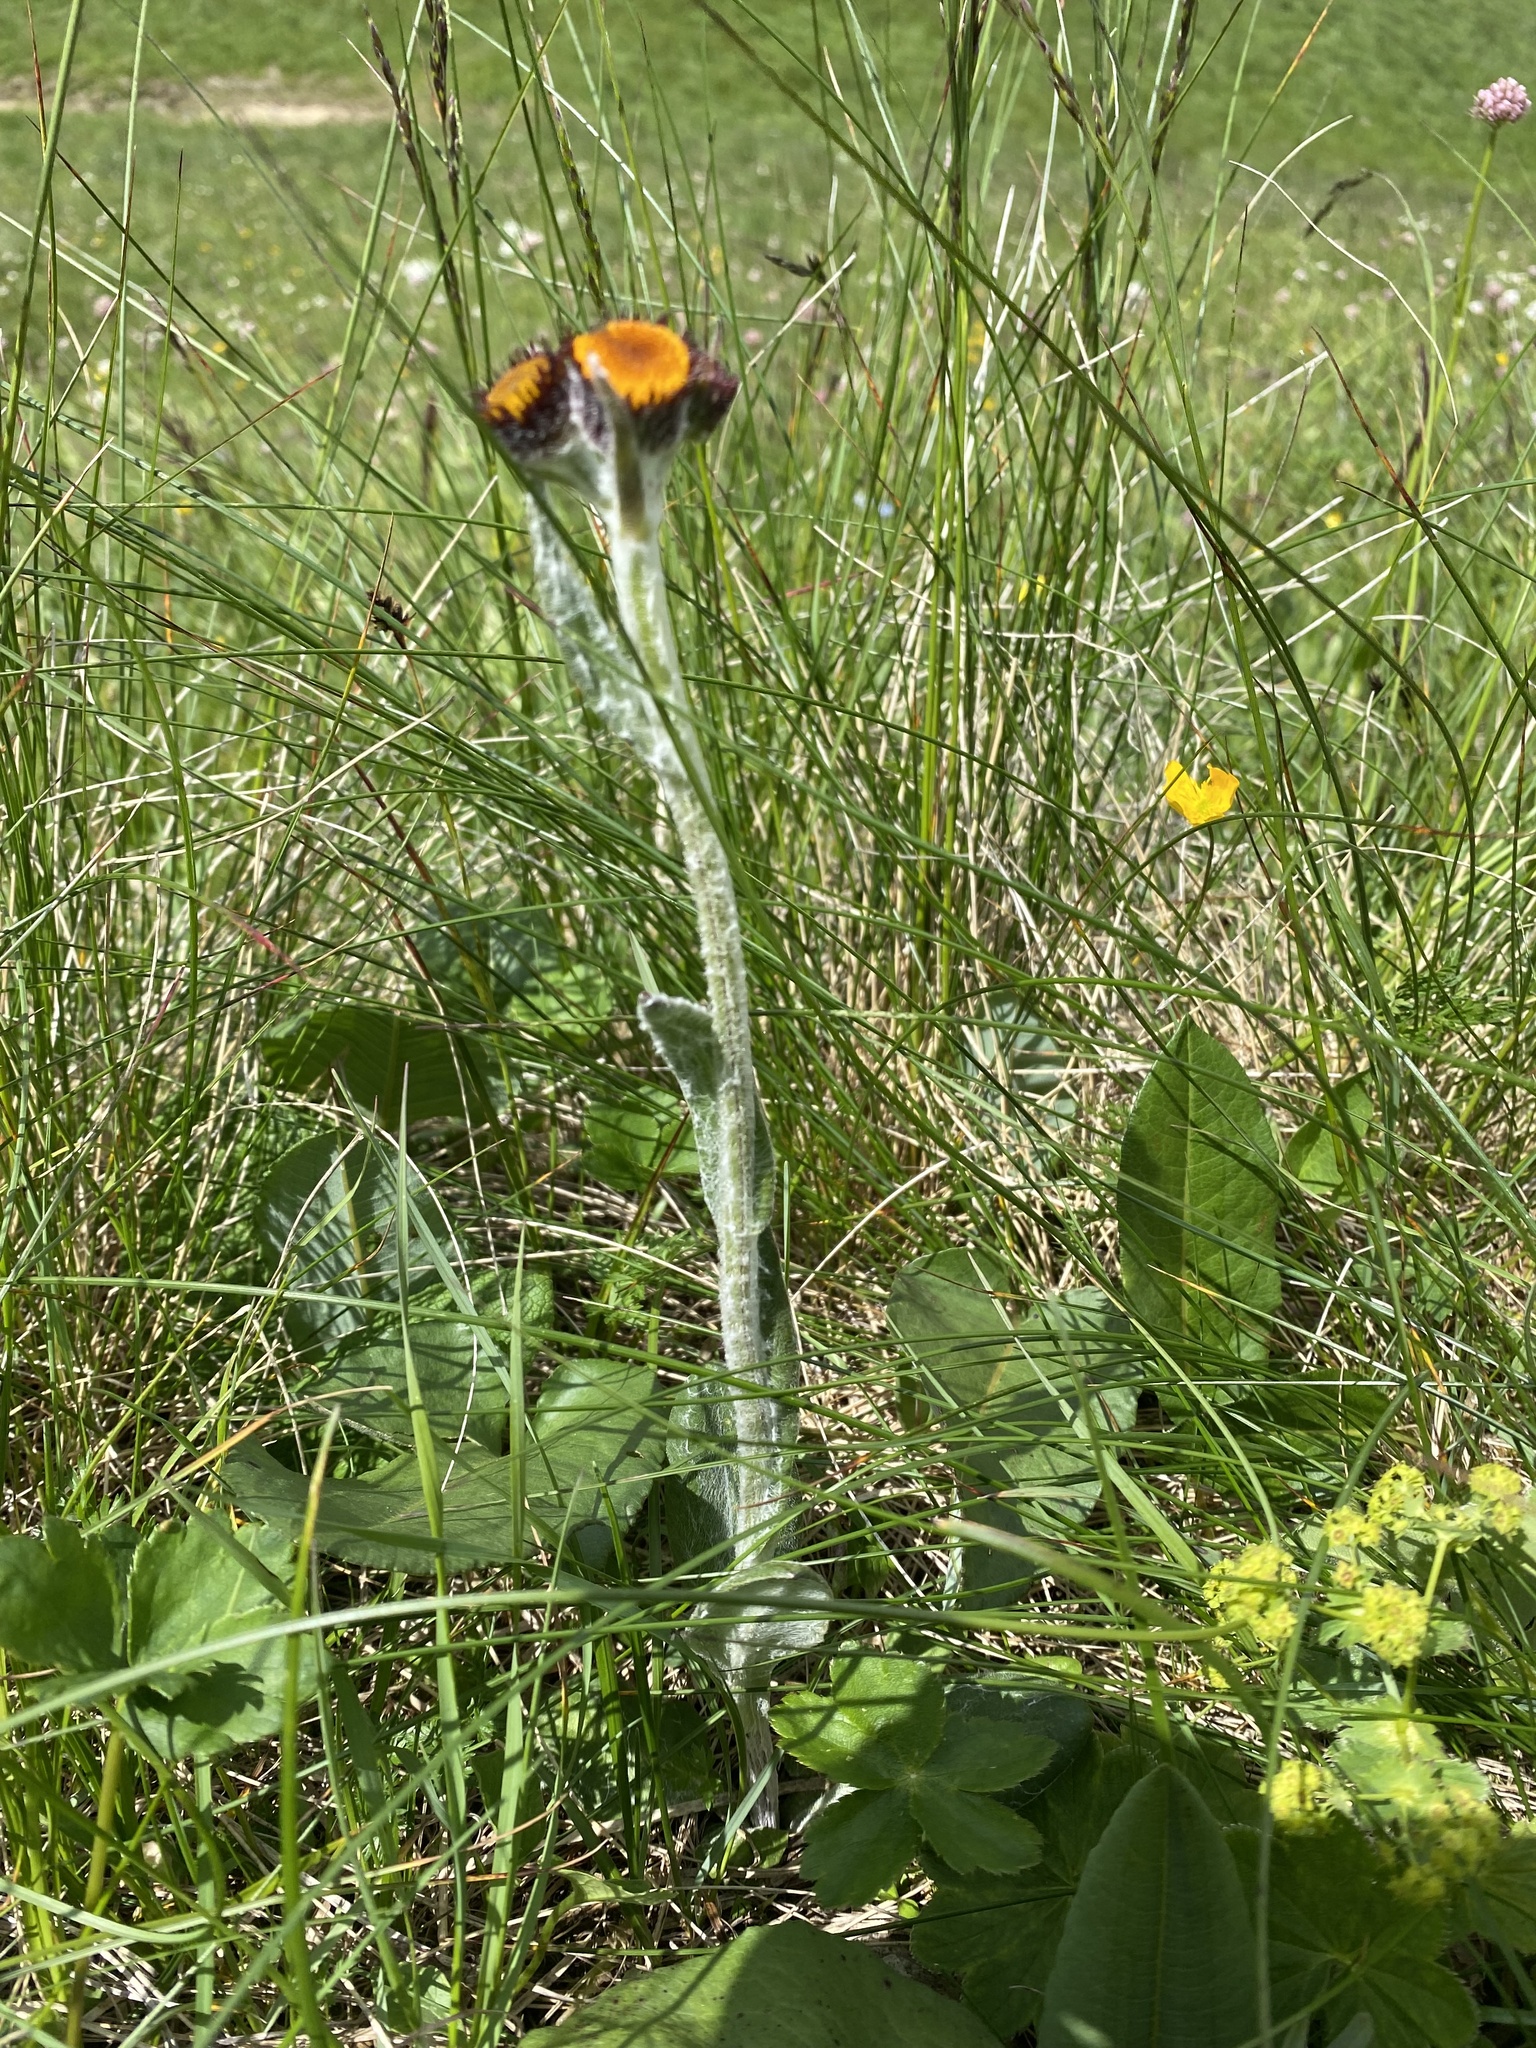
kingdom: Plantae
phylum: Tracheophyta
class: Magnoliopsida
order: Asterales
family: Asteraceae
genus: Tephroseris
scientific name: Tephroseris integrifolia
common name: Field fleawort
